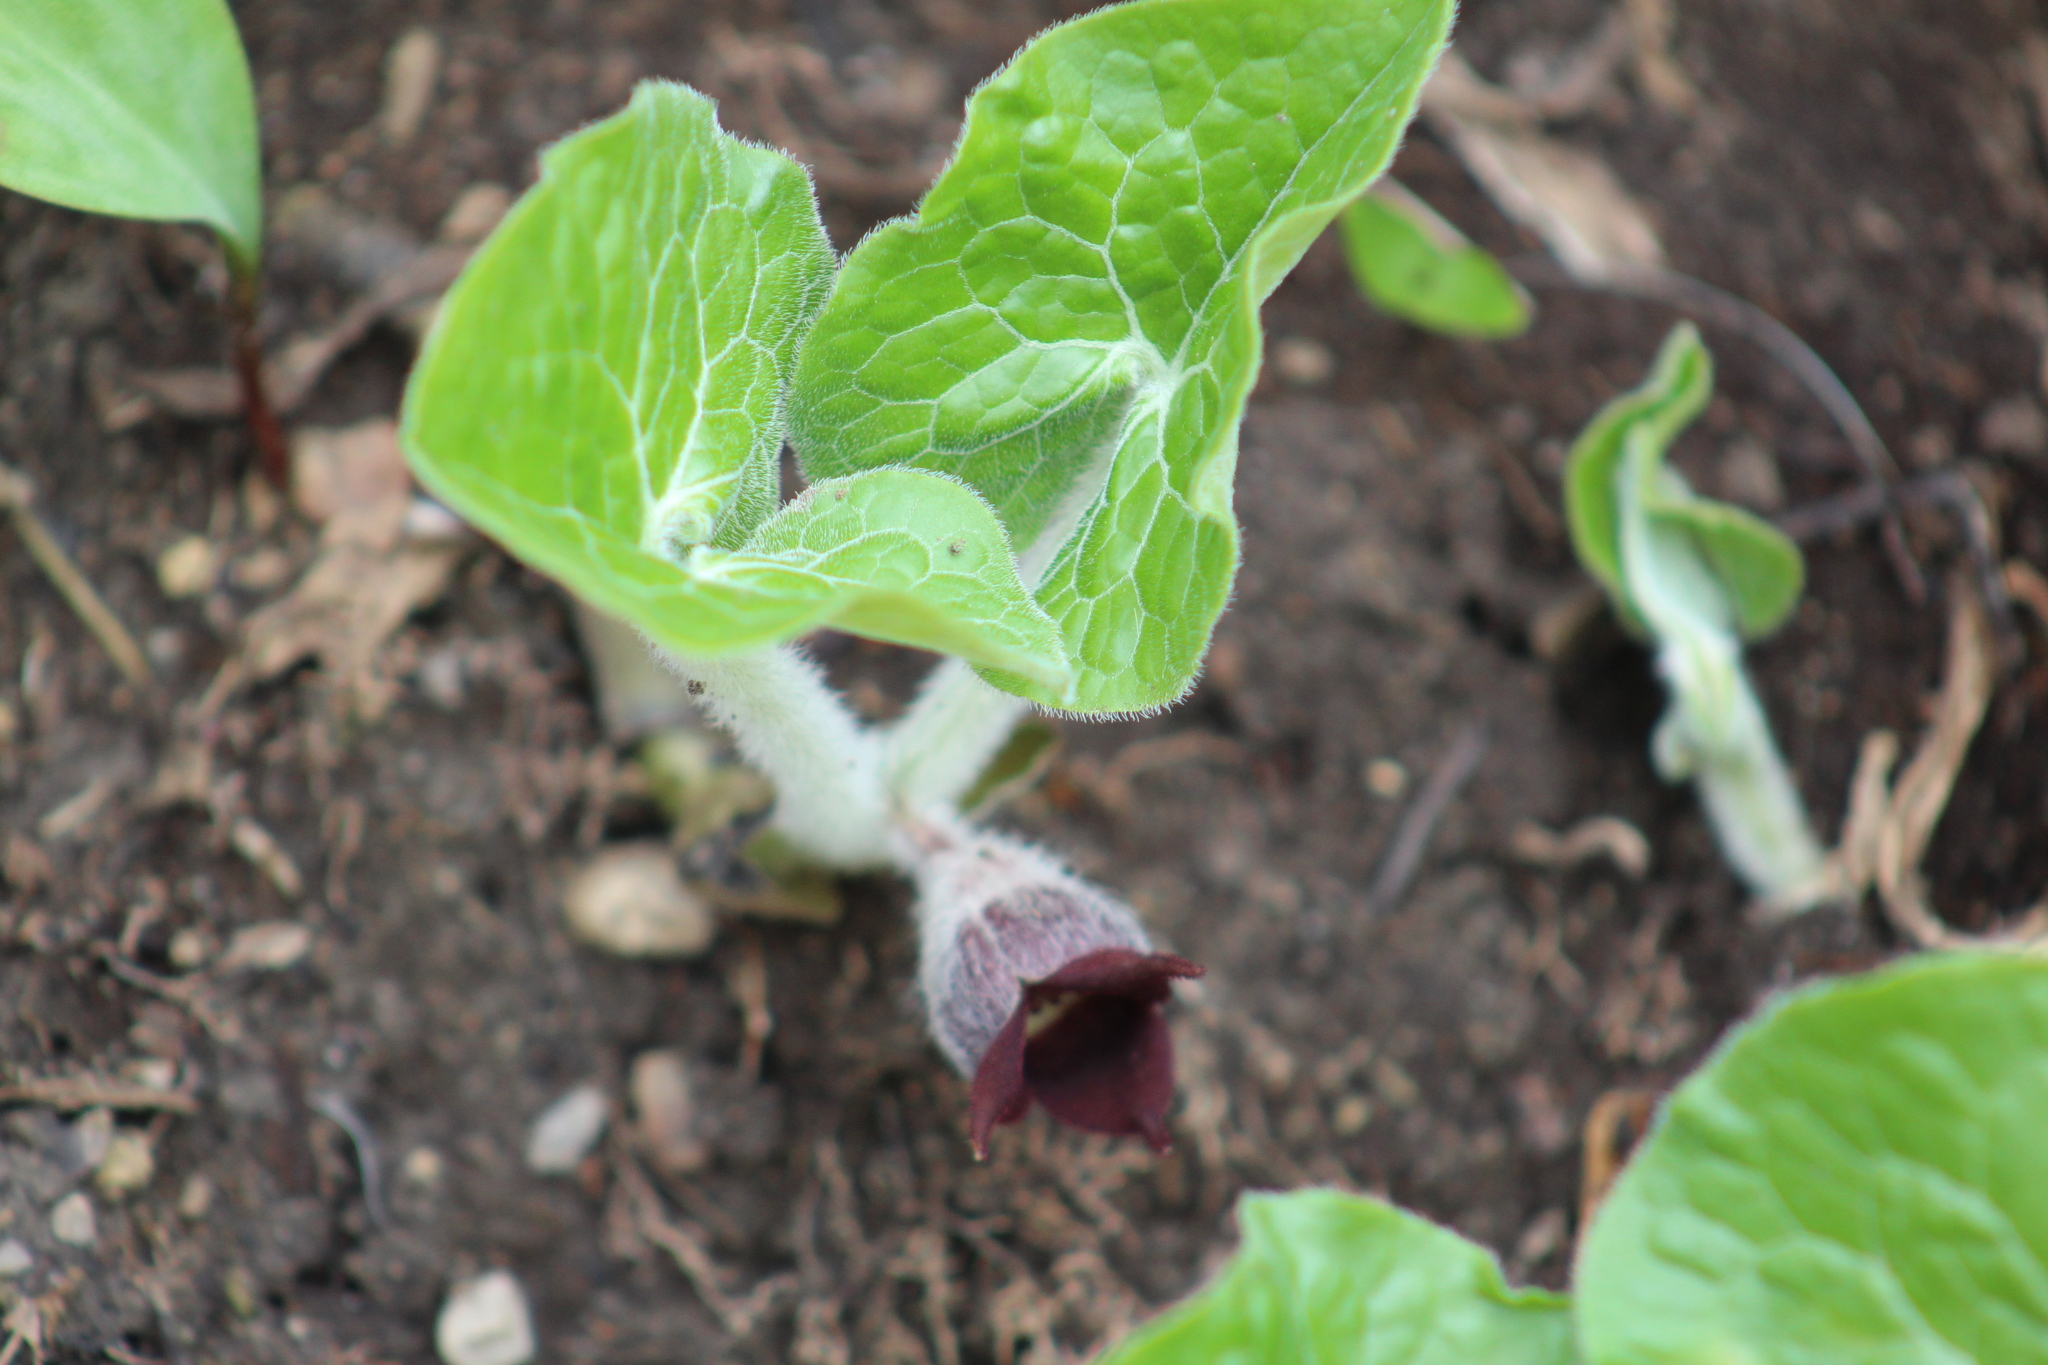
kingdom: Plantae
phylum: Tracheophyta
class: Magnoliopsida
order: Piperales
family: Aristolochiaceae
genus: Asarum
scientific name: Asarum canadense
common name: Wild ginger
